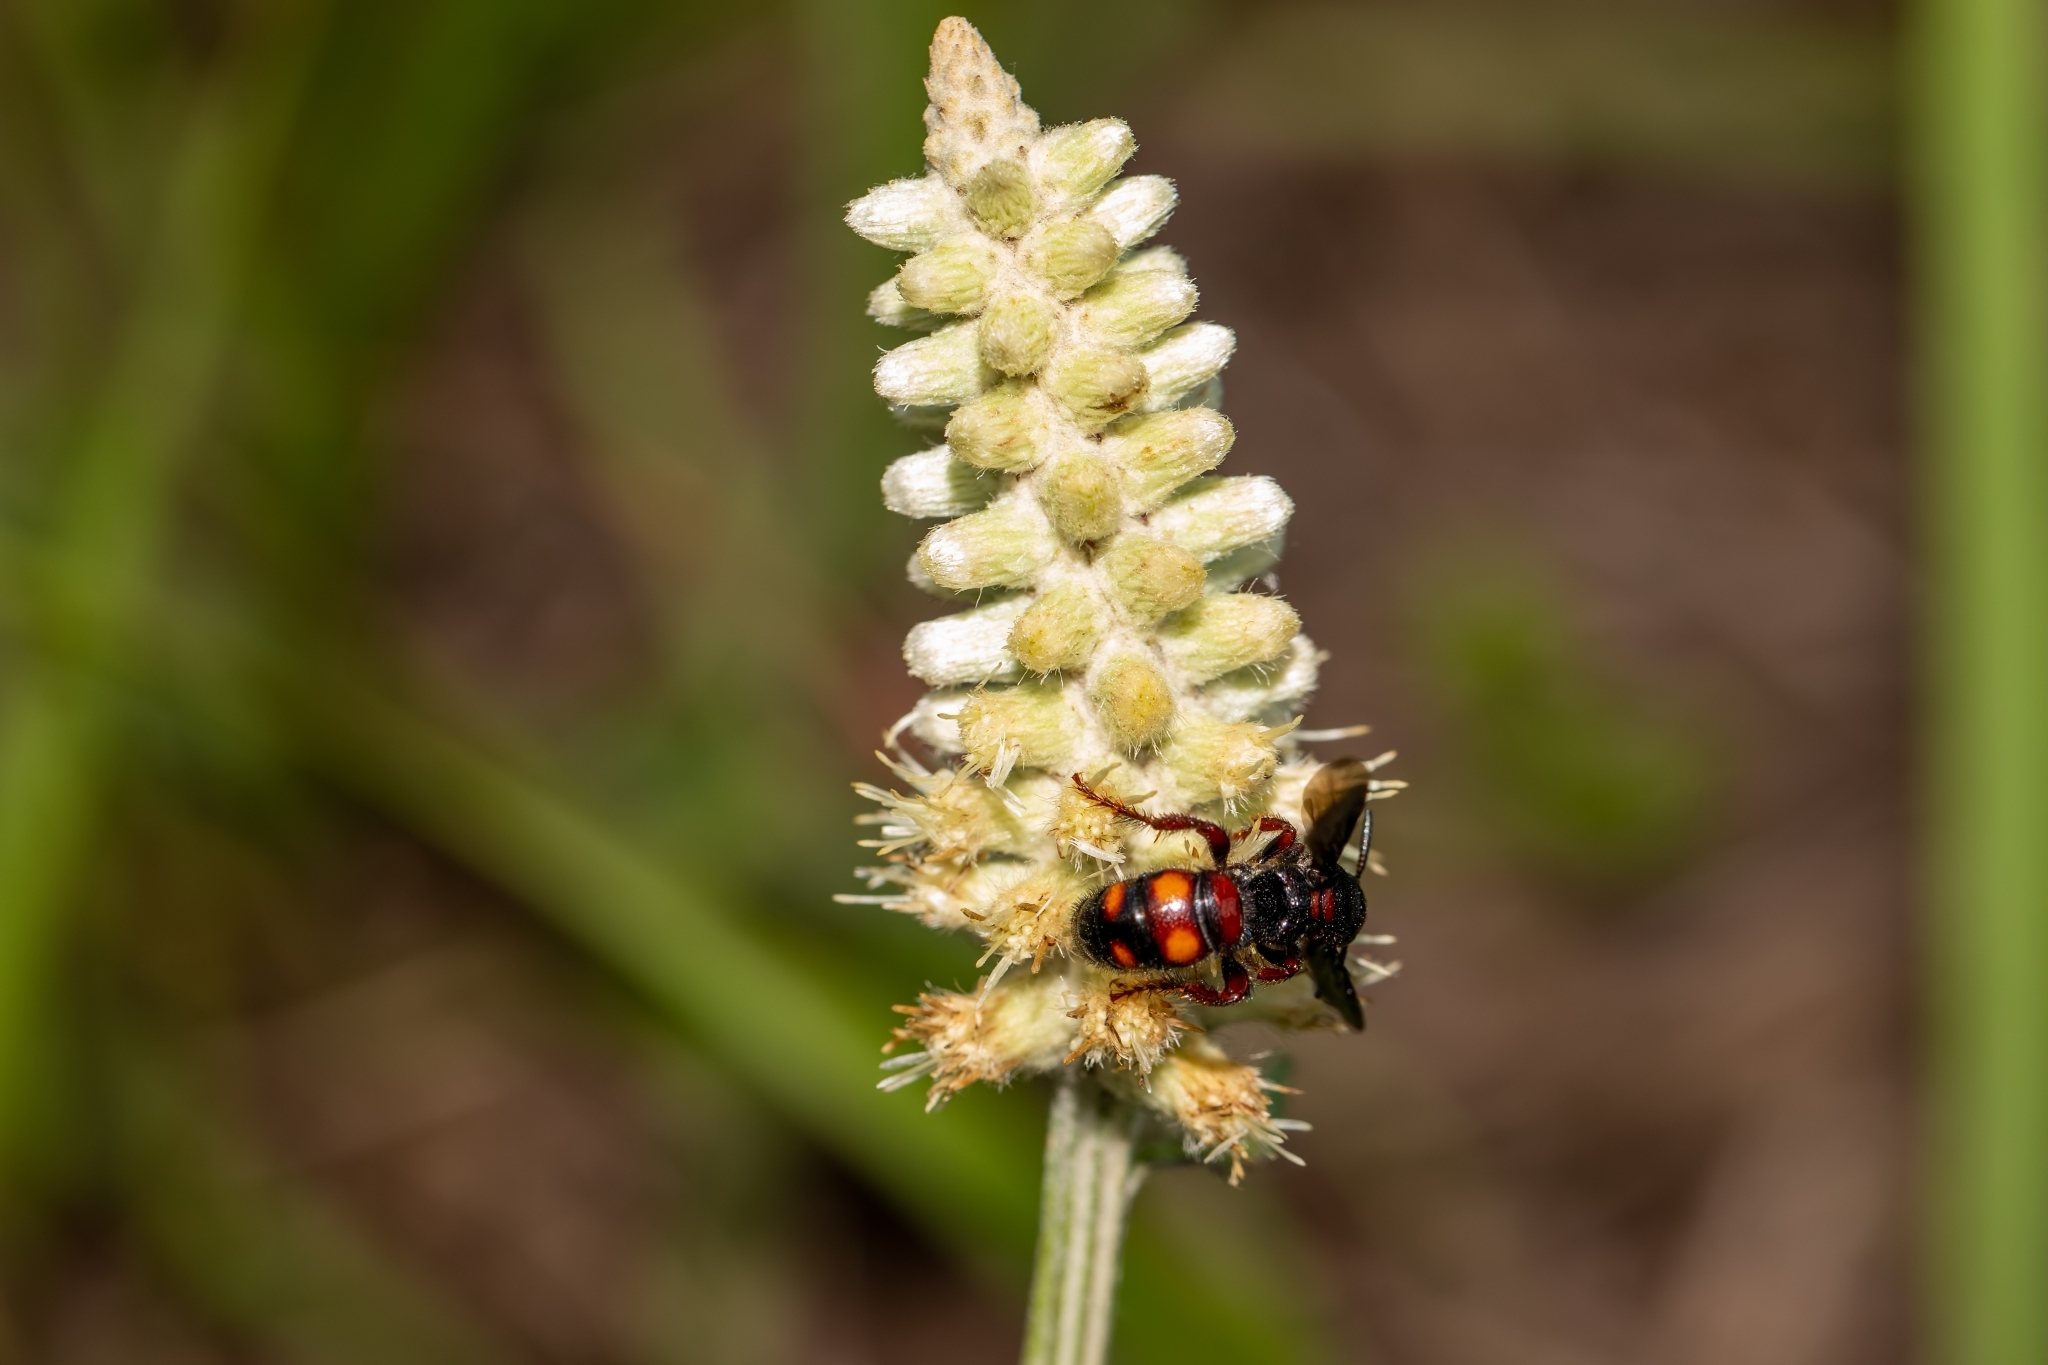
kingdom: Animalia
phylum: Arthropoda
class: Insecta
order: Hymenoptera
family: Scoliidae
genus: Scolia
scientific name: Scolia nobilitata
